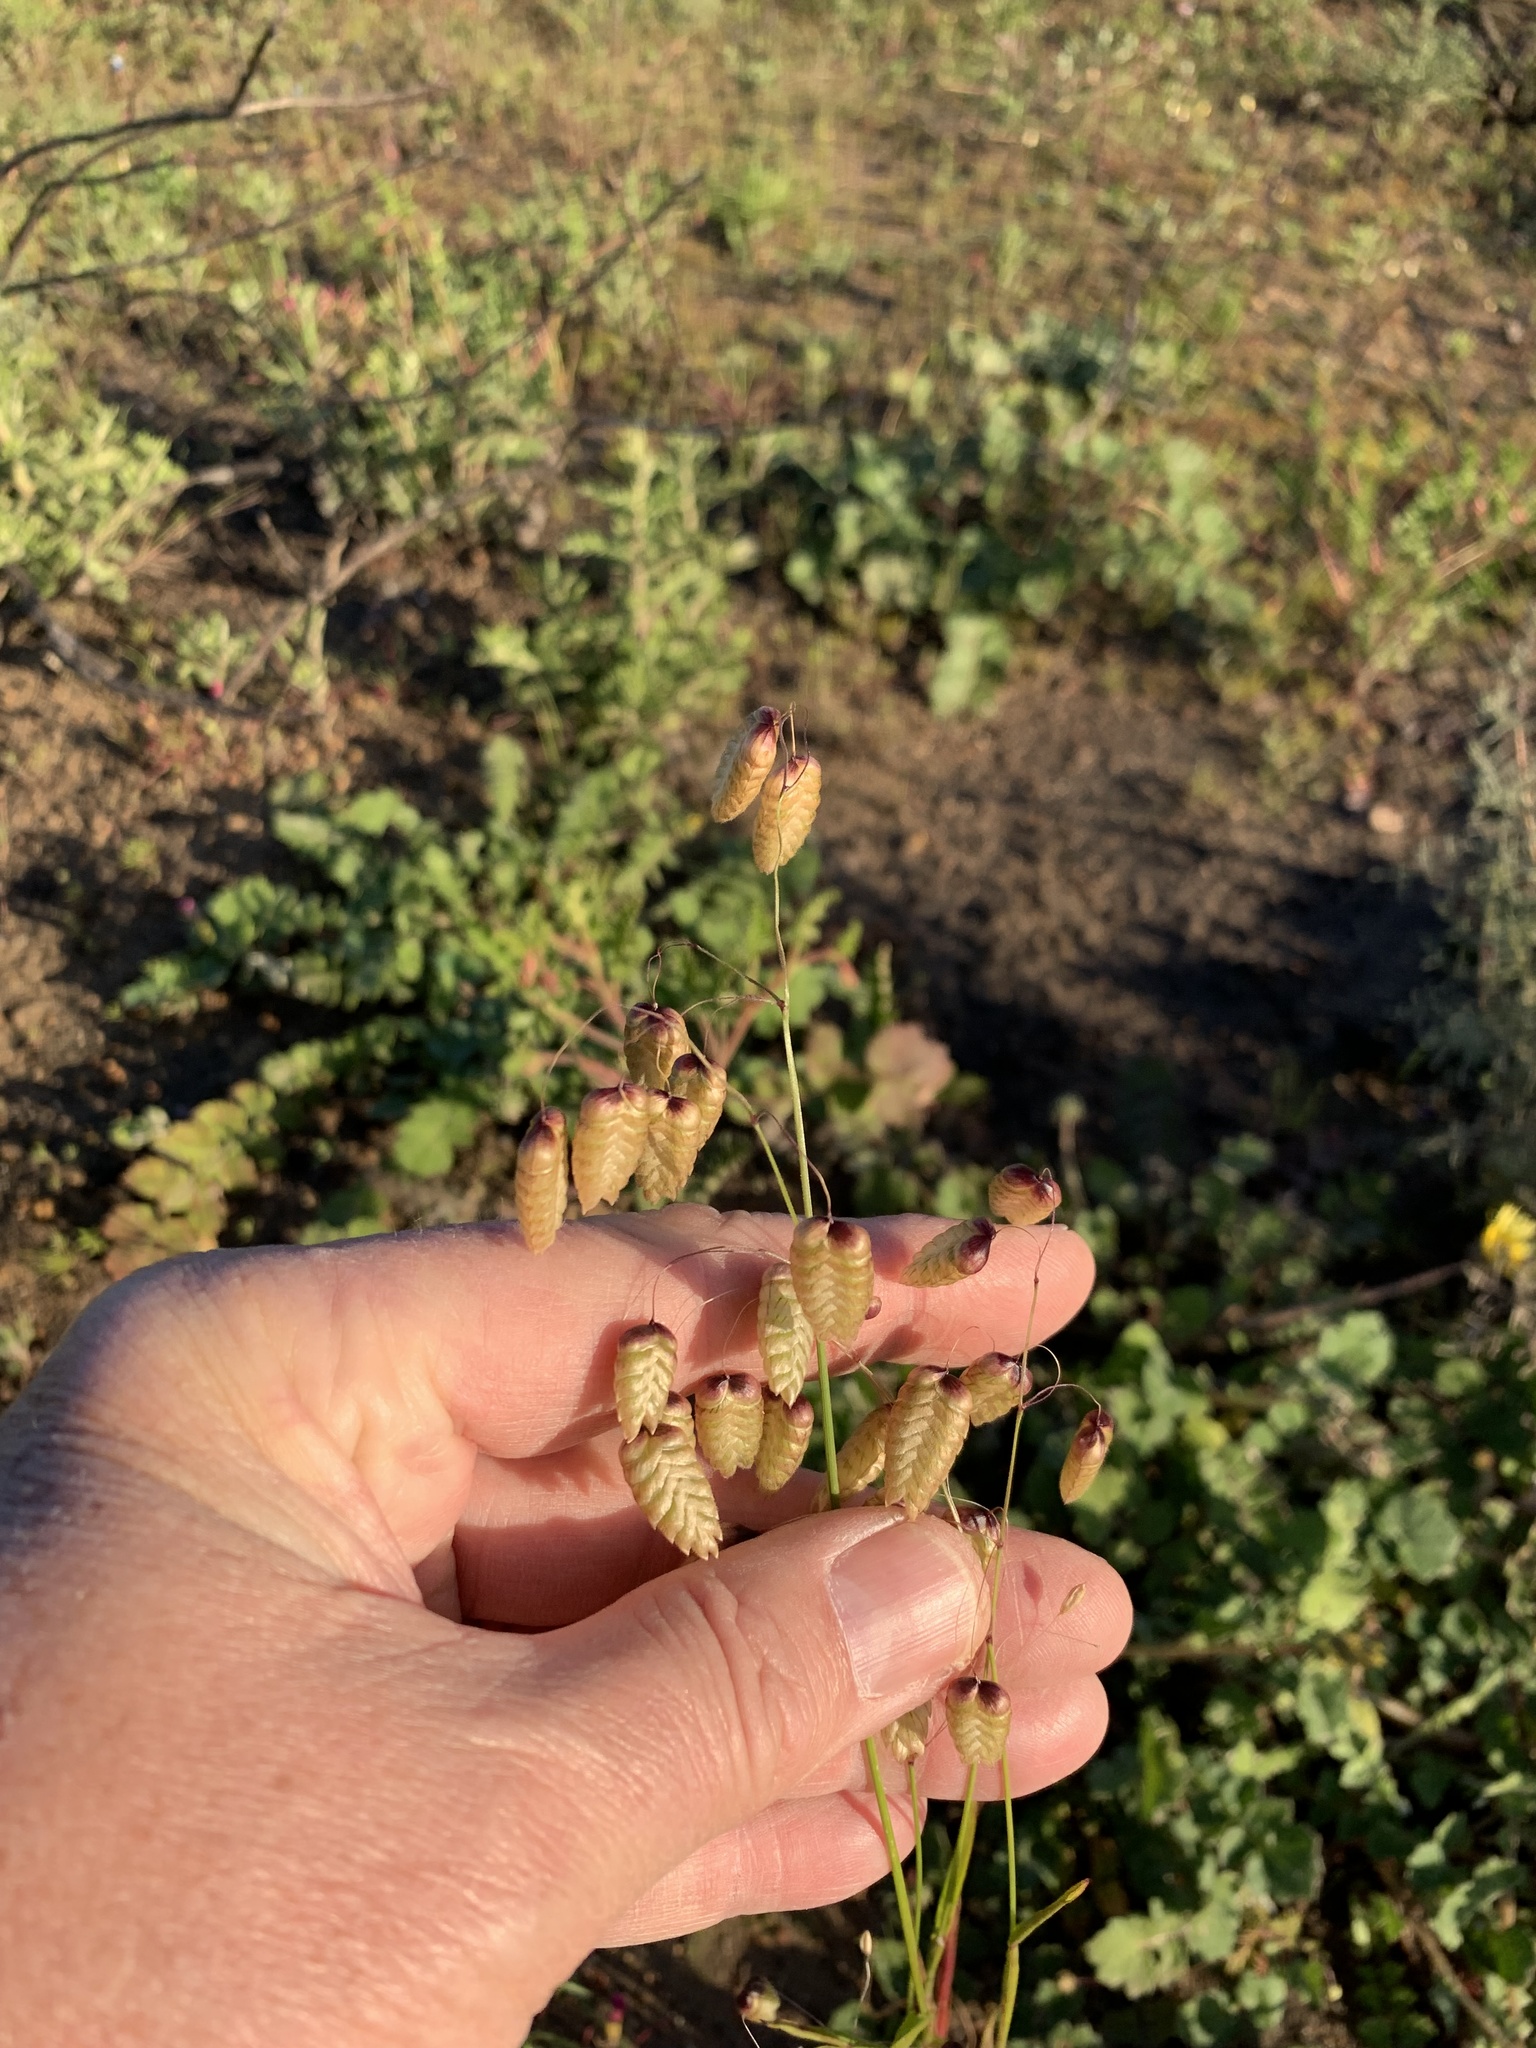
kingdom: Plantae
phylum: Tracheophyta
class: Liliopsida
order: Poales
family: Poaceae
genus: Briza
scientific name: Briza maxima
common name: Big quakinggrass
